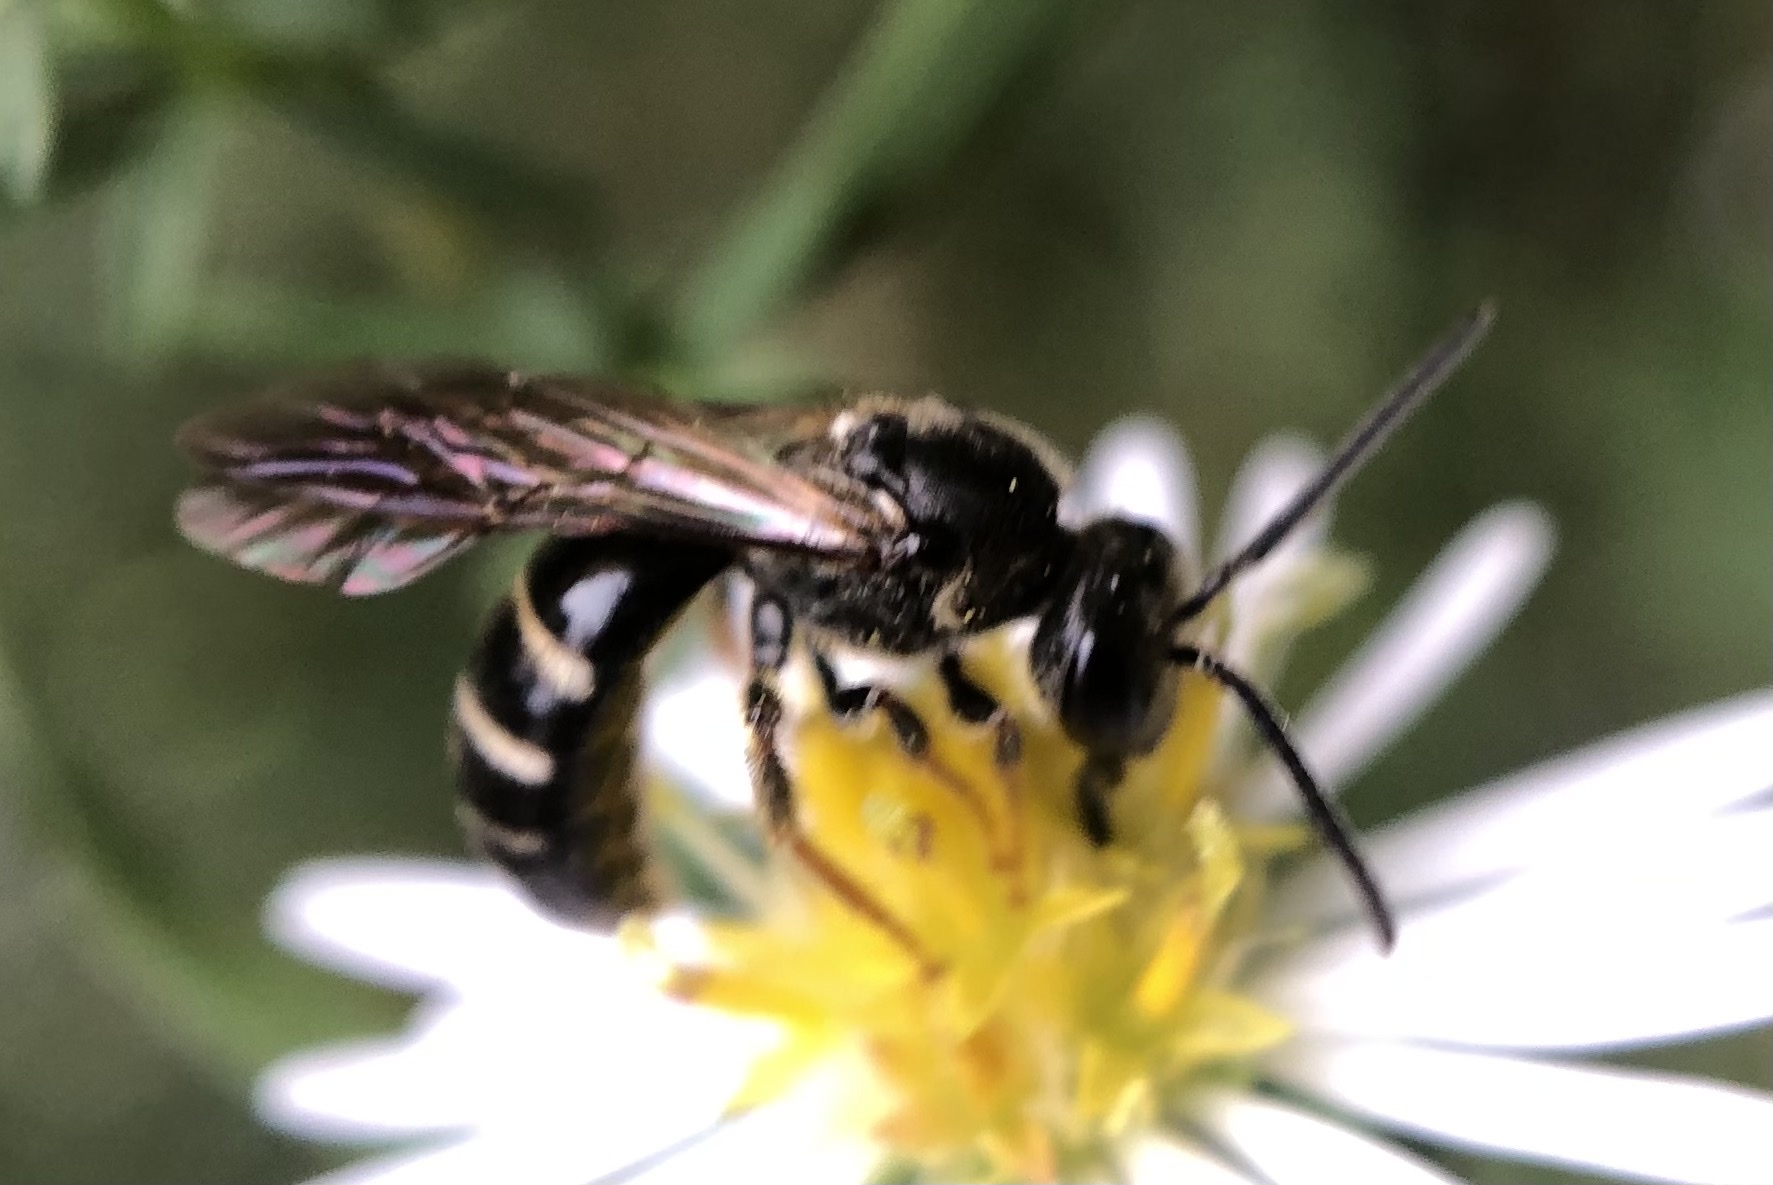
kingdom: Animalia
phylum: Arthropoda
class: Insecta
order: Hymenoptera
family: Halictidae
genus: Lasioglossum
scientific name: Lasioglossum fuscipenne
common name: Brown-winged sweat bee
